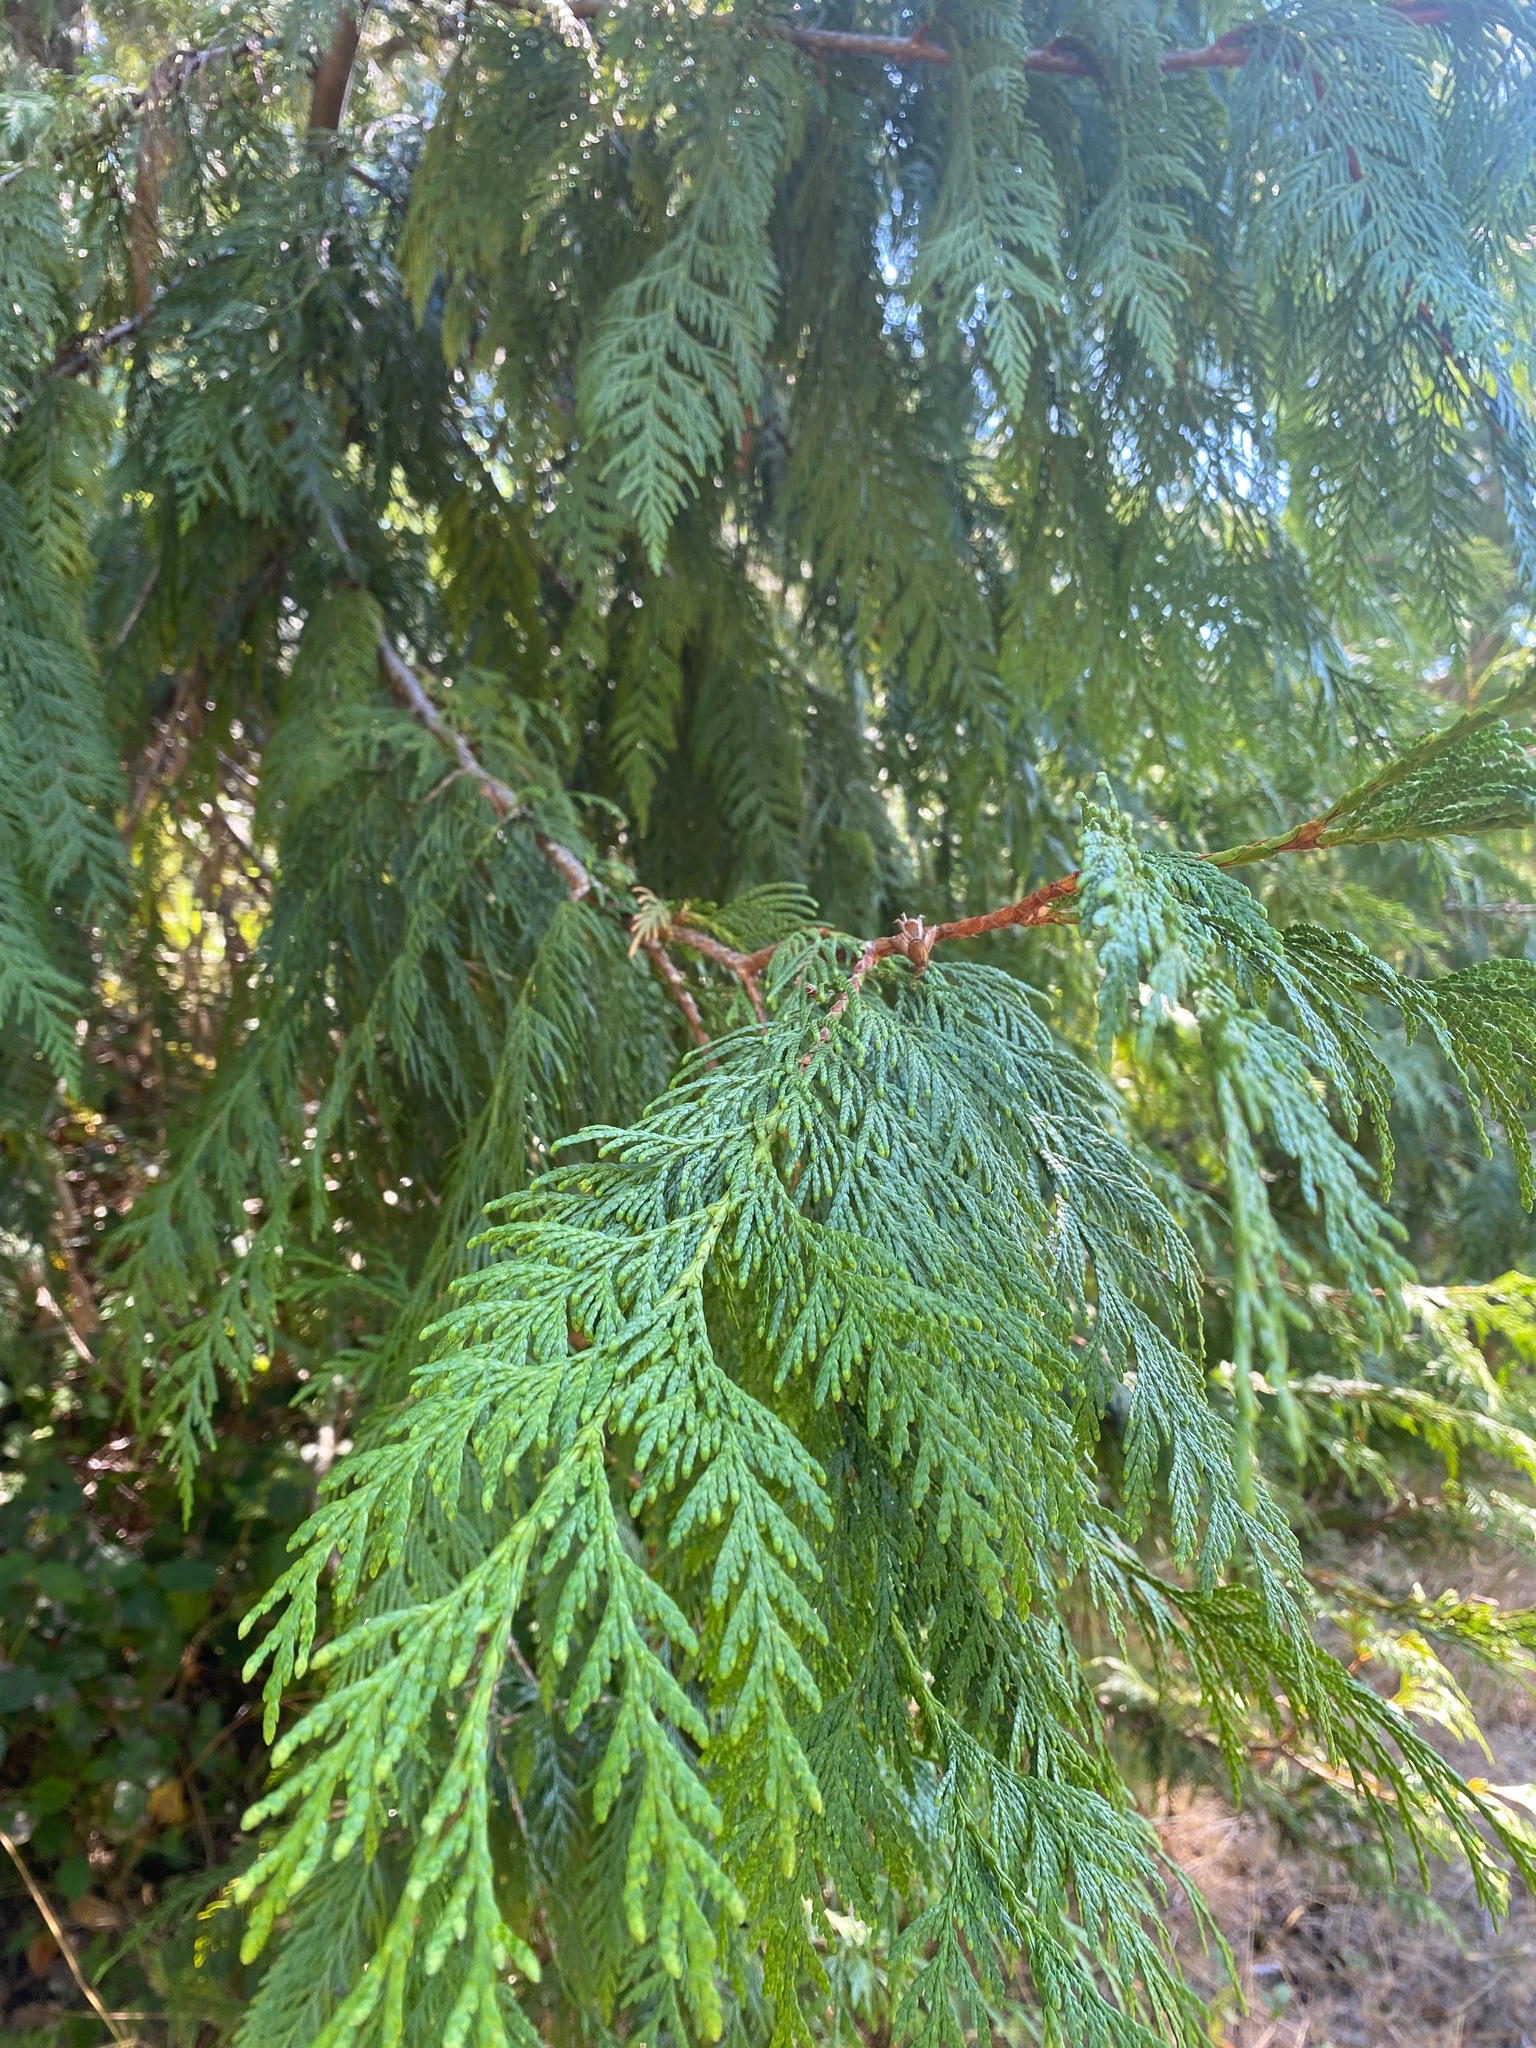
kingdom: Plantae
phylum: Tracheophyta
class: Pinopsida
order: Pinales
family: Cupressaceae
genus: Thuja
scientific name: Thuja plicata
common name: Western red-cedar
